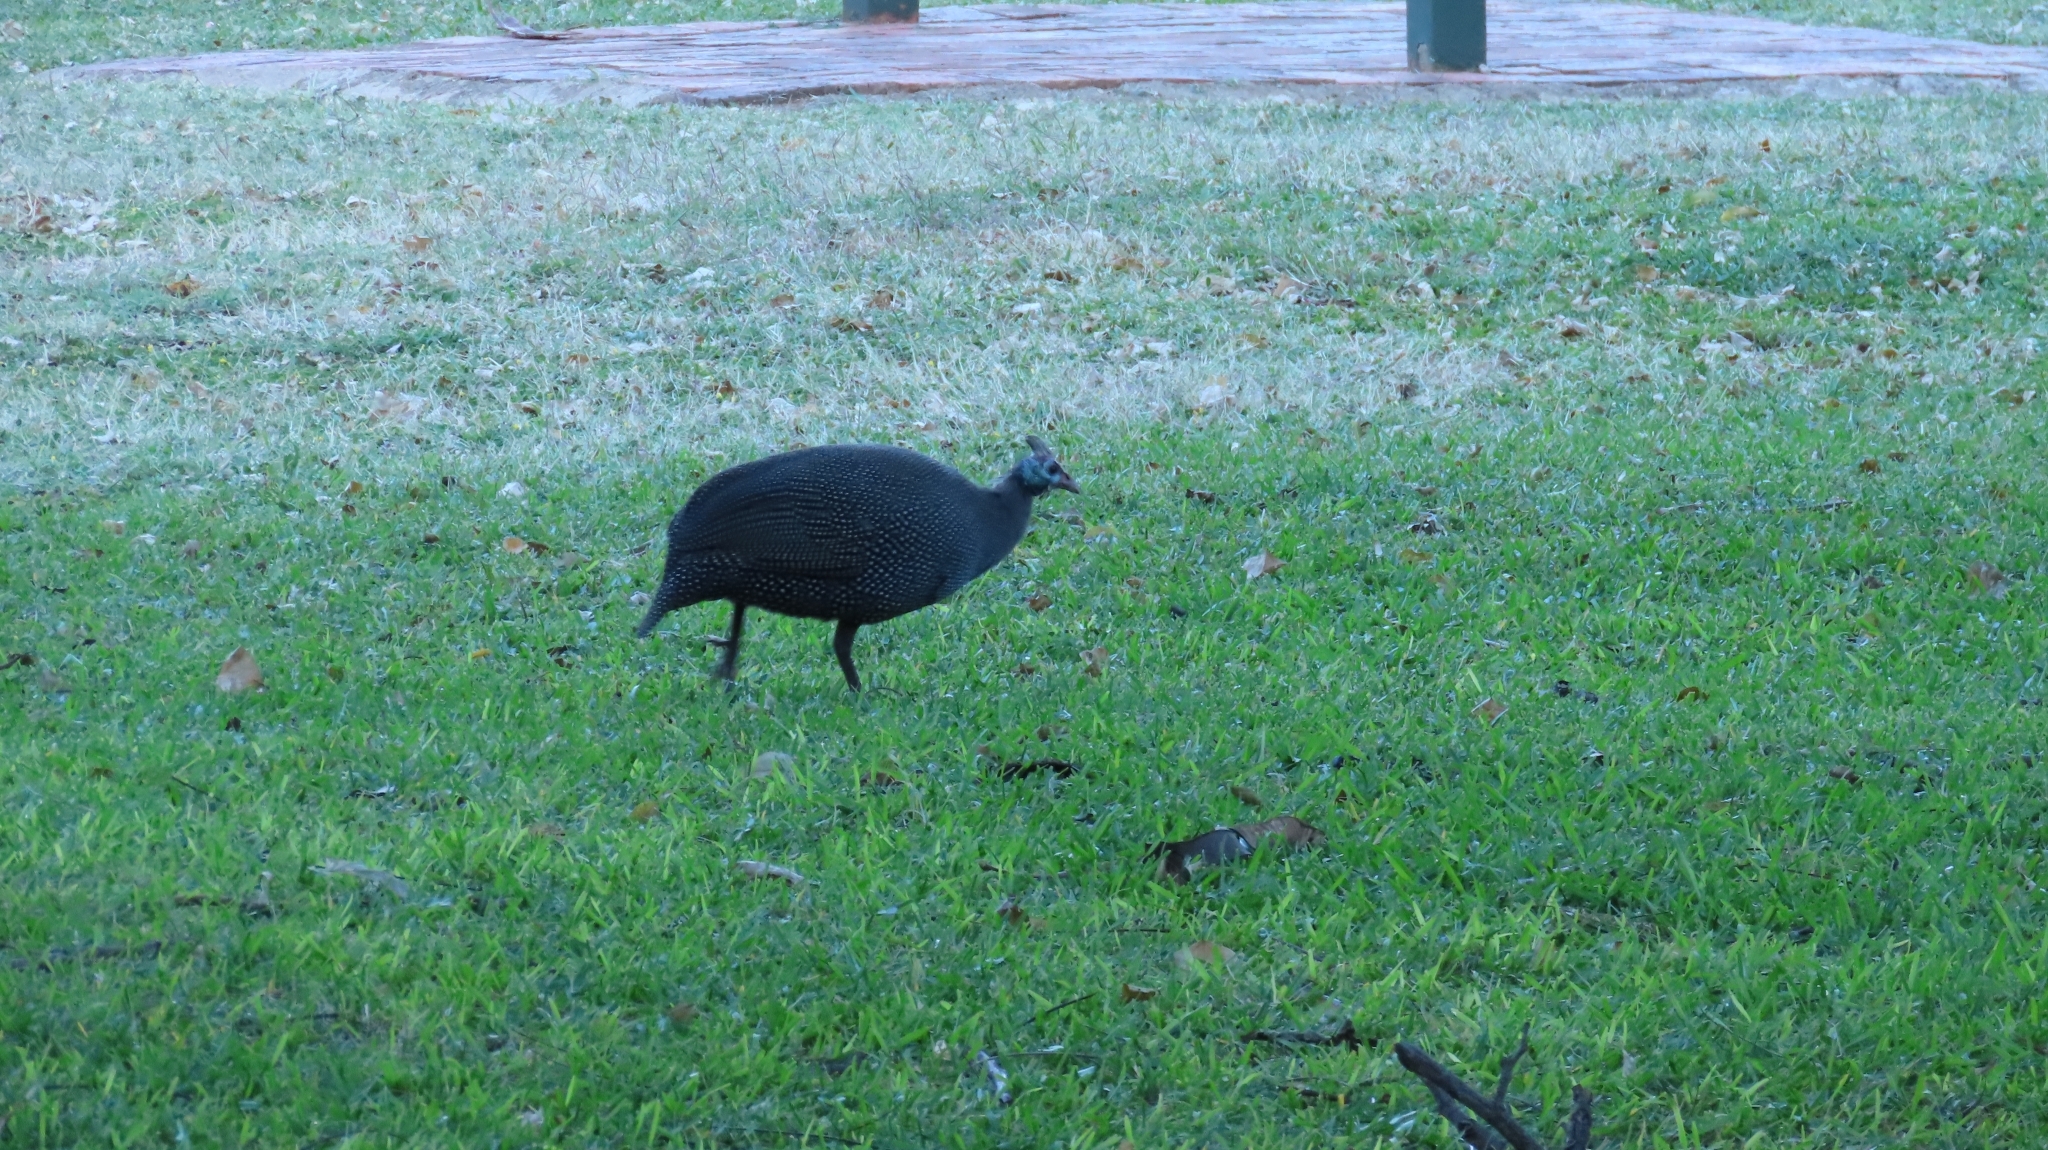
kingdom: Animalia
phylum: Chordata
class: Aves
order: Galliformes
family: Numididae
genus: Numida
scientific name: Numida meleagris
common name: Helmeted guineafowl
